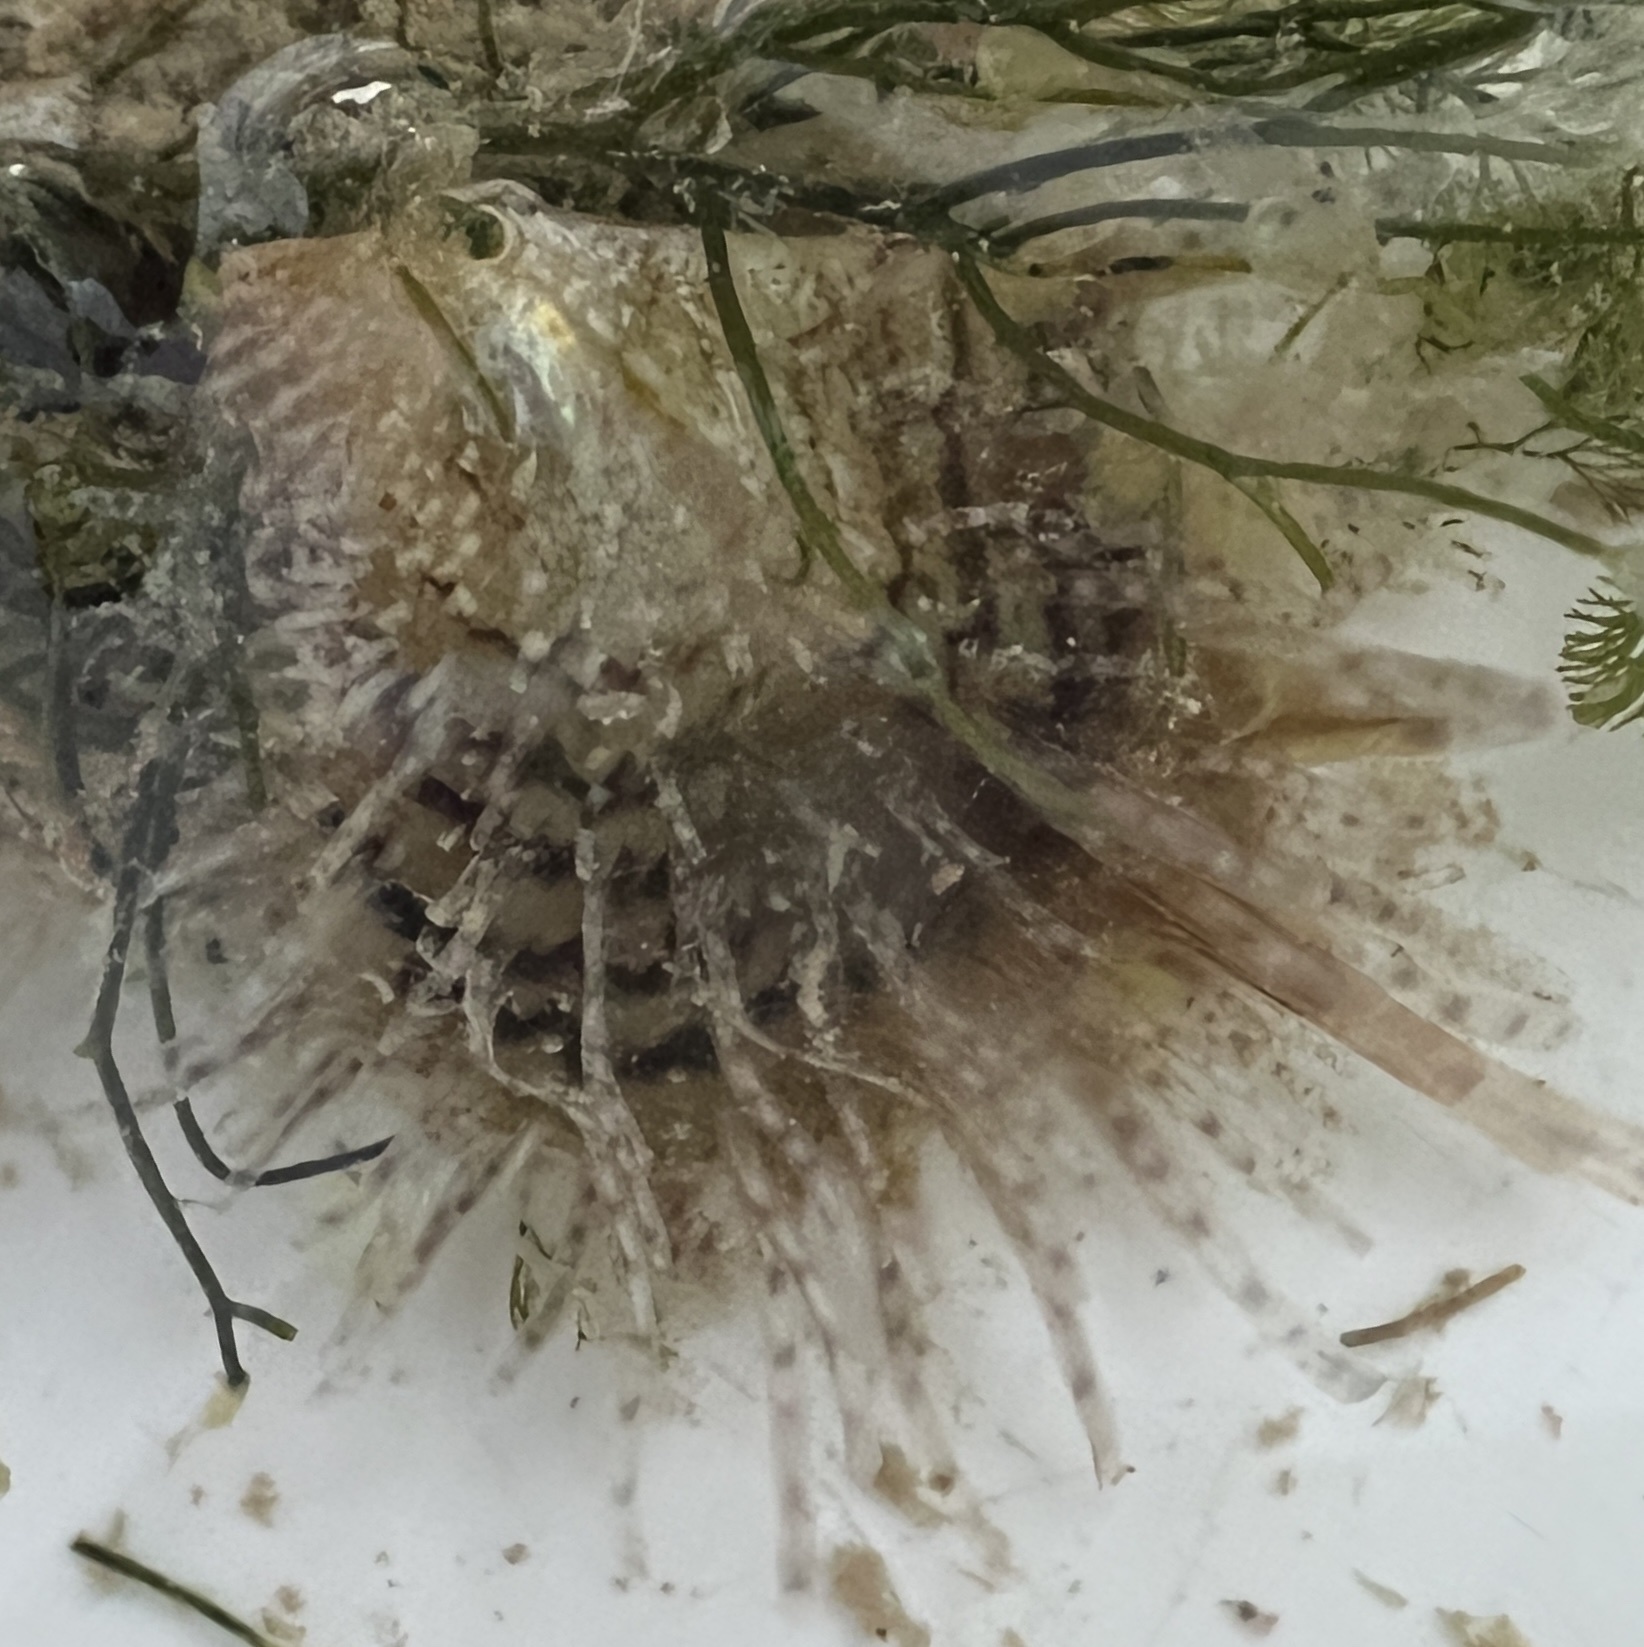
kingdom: Animalia
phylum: Mollusca
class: Bivalvia
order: Ostreida
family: Margaritidae
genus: Pinctada
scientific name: Pinctada longisquamosa
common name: Scaly wing oyster
